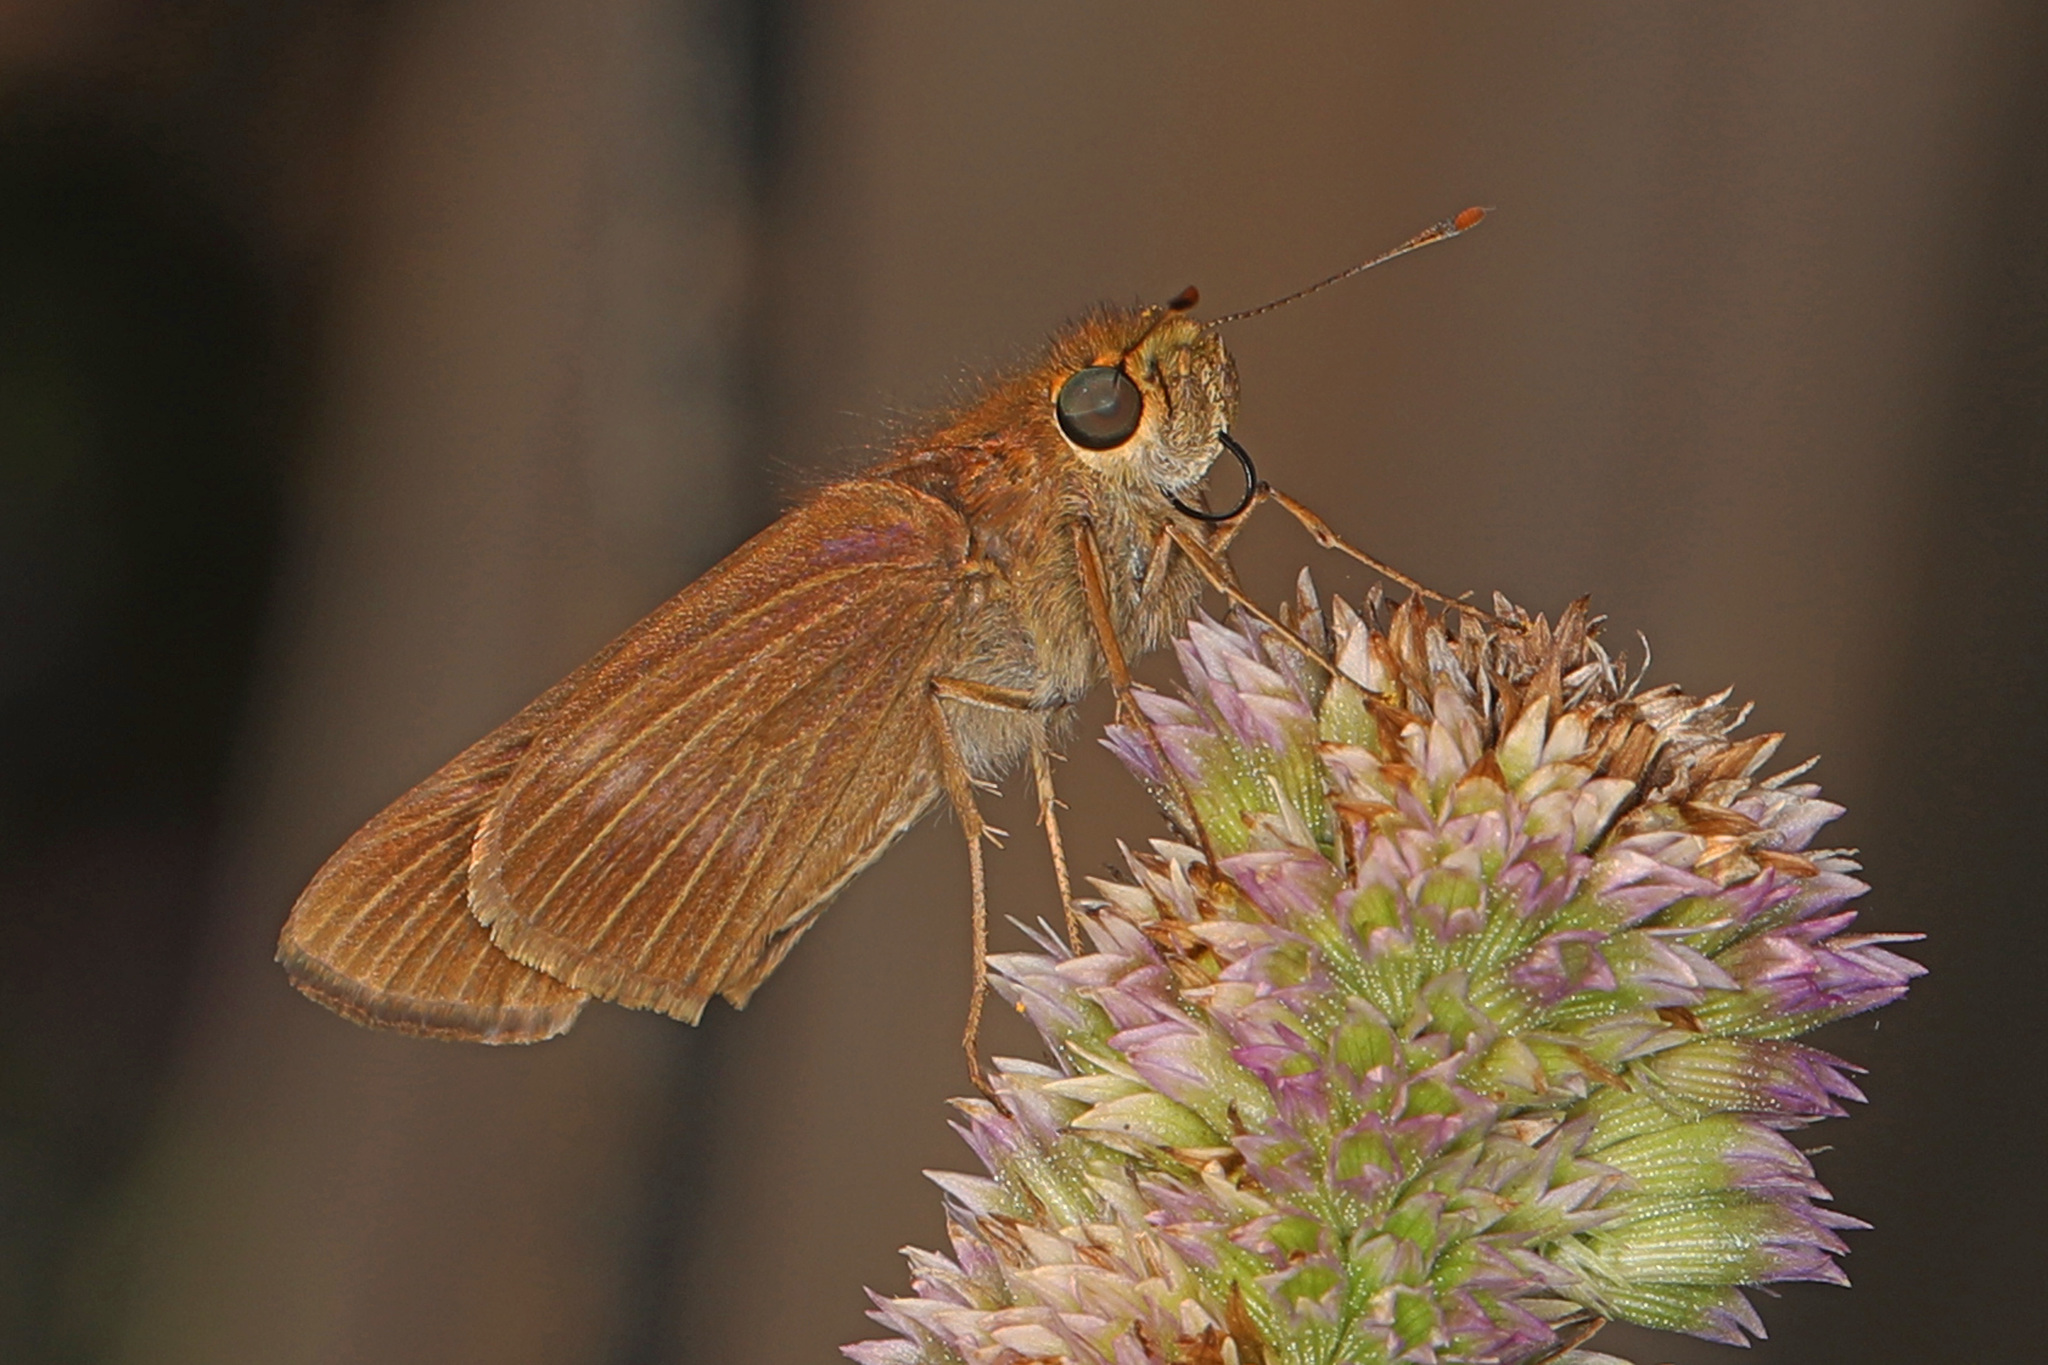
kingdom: Animalia
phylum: Arthropoda
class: Insecta
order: Lepidoptera
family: Hesperiidae
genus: Panoquina
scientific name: Panoquina ocola
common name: Ocola skipper
